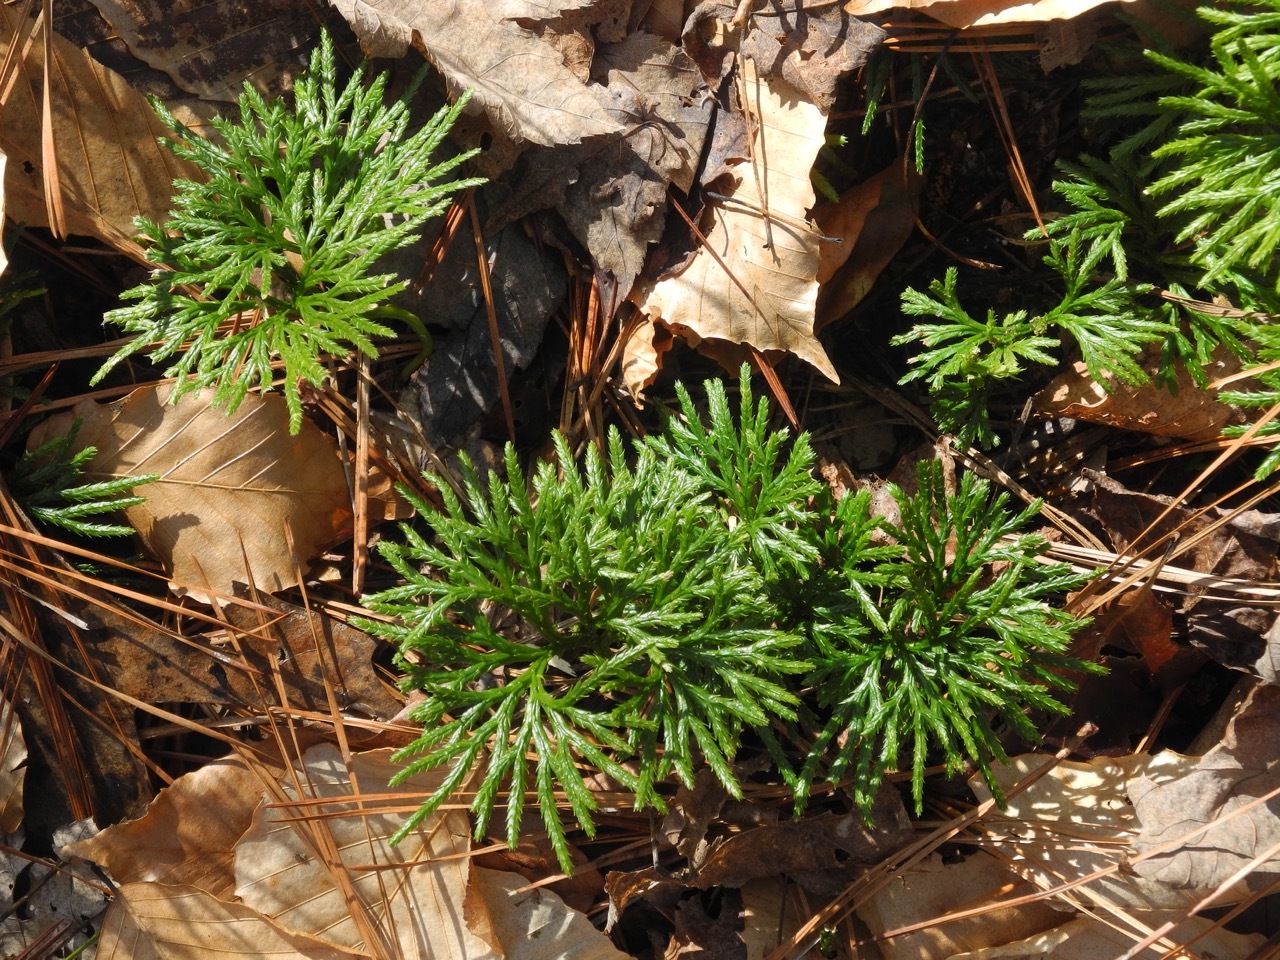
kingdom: Plantae
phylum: Tracheophyta
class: Lycopodiopsida
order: Lycopodiales
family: Lycopodiaceae
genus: Diphasiastrum
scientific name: Diphasiastrum digitatum
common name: Southern running-pine
